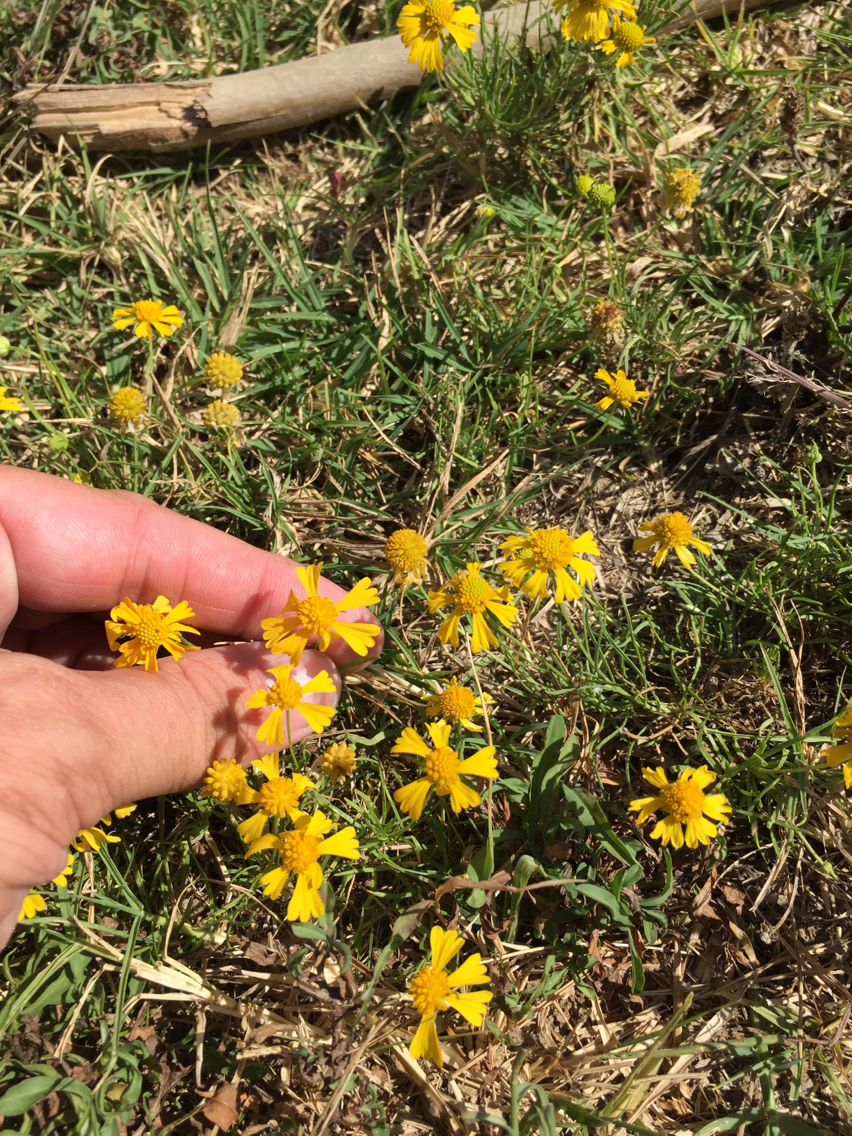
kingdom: Plantae
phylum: Tracheophyta
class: Magnoliopsida
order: Asterales
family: Asteraceae
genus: Helenium
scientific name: Helenium amarum
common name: Bitter sneezeweed
